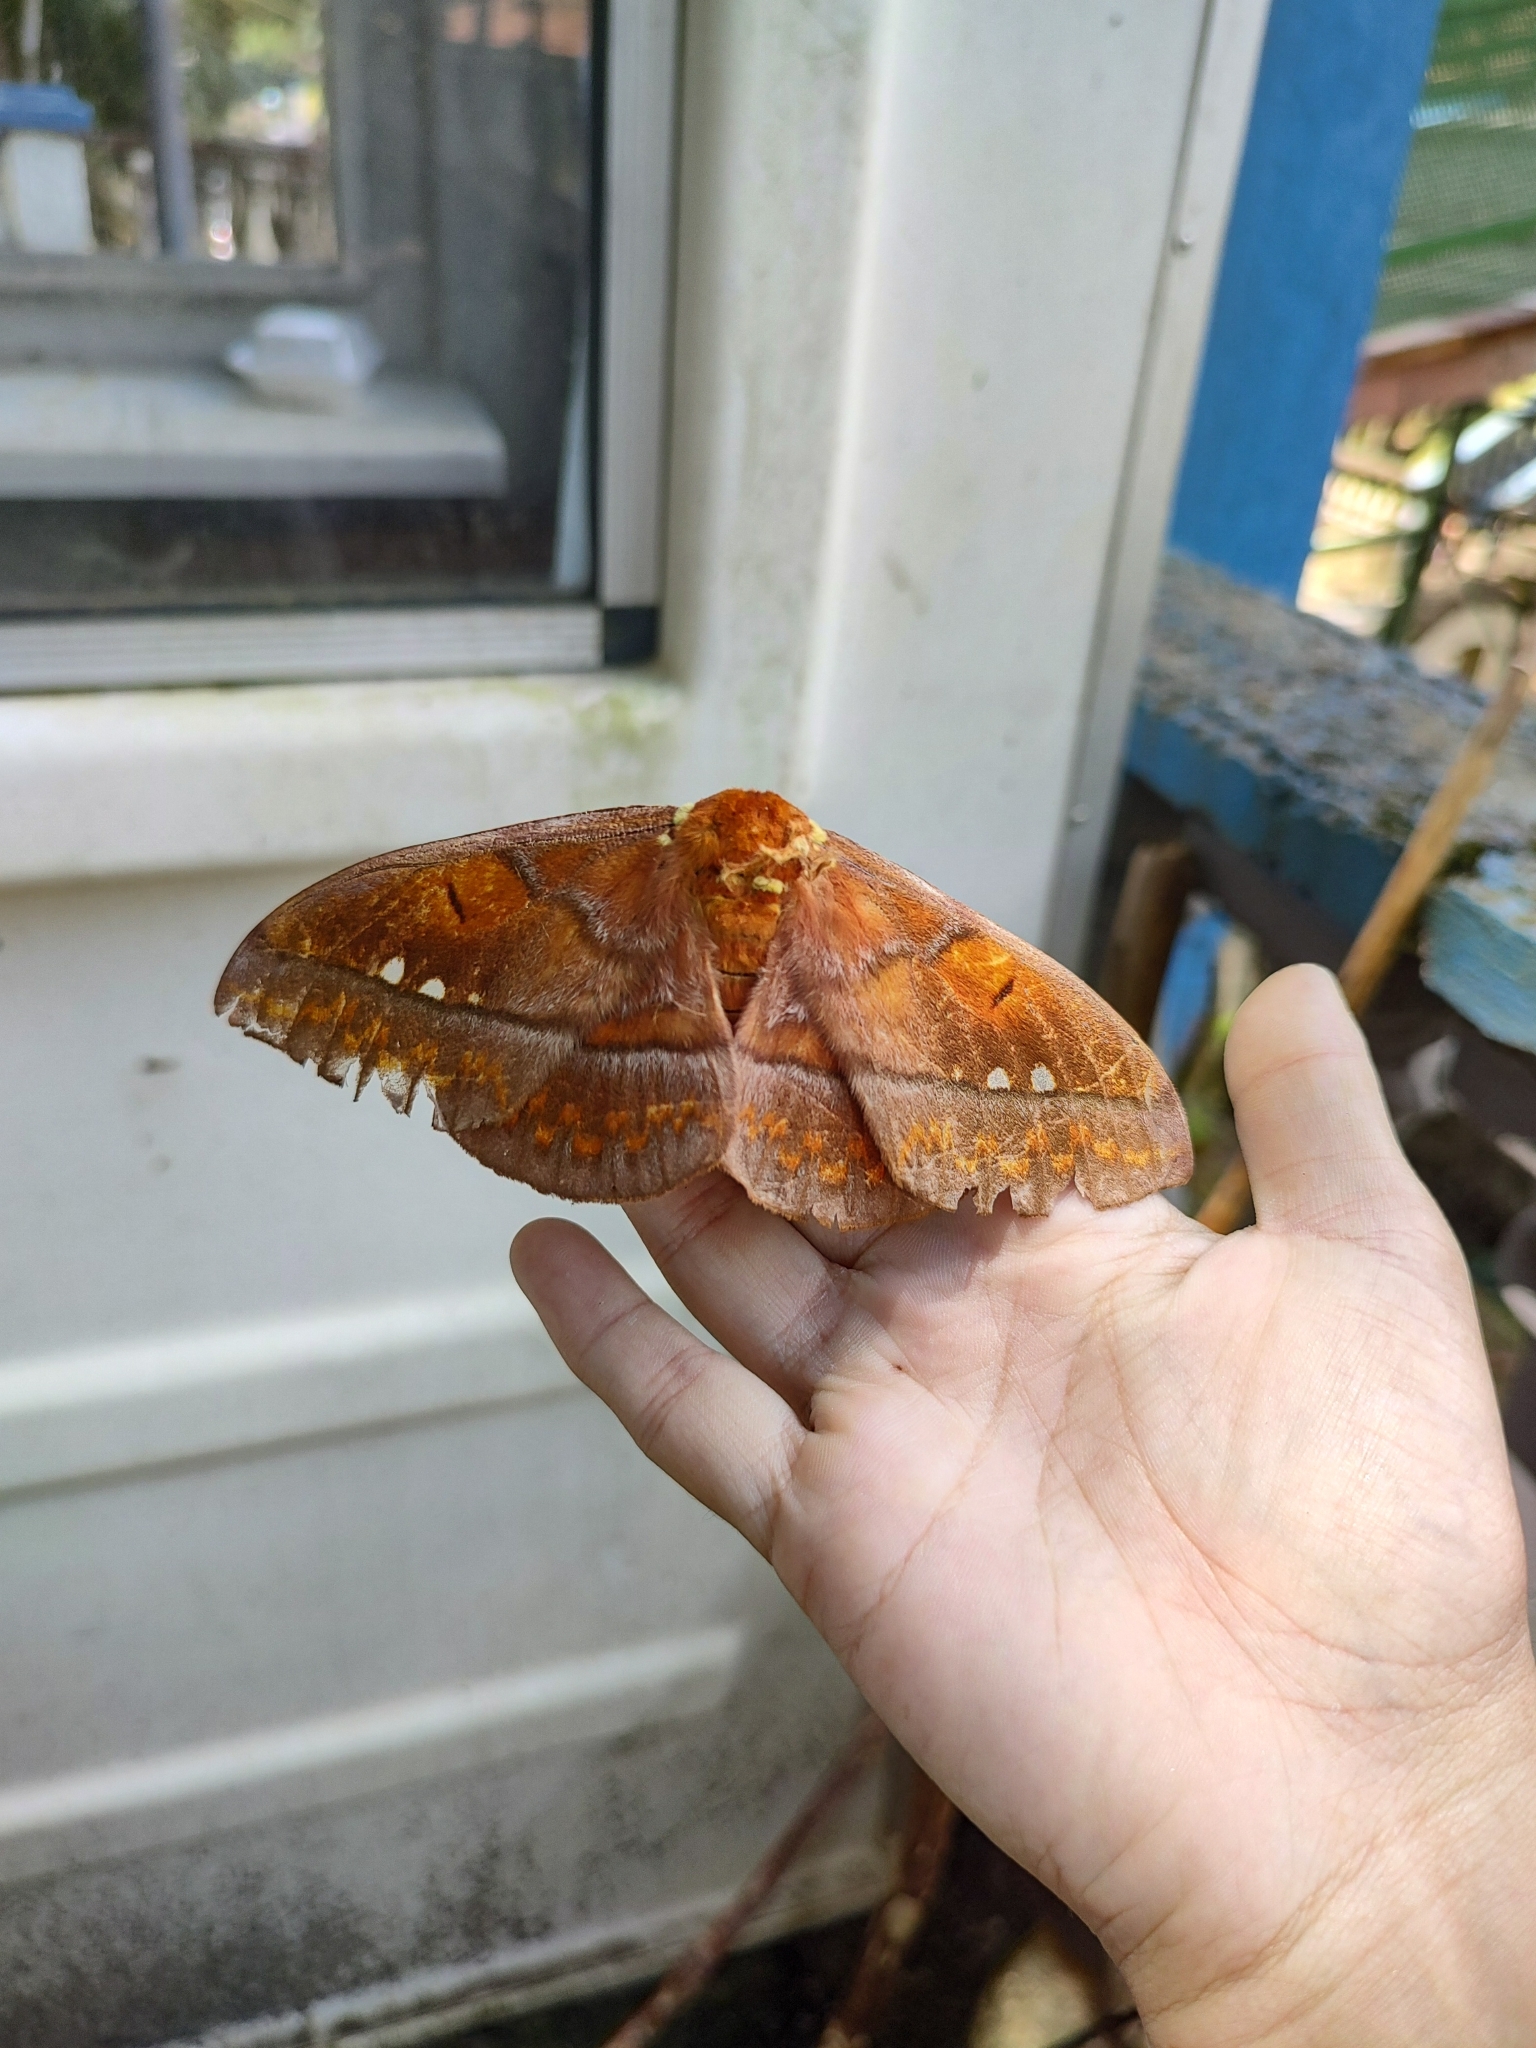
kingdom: Animalia
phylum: Arthropoda
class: Insecta
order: Lepidoptera
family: Saturniidae
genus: Procitheronia
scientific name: Procitheronia principalis
